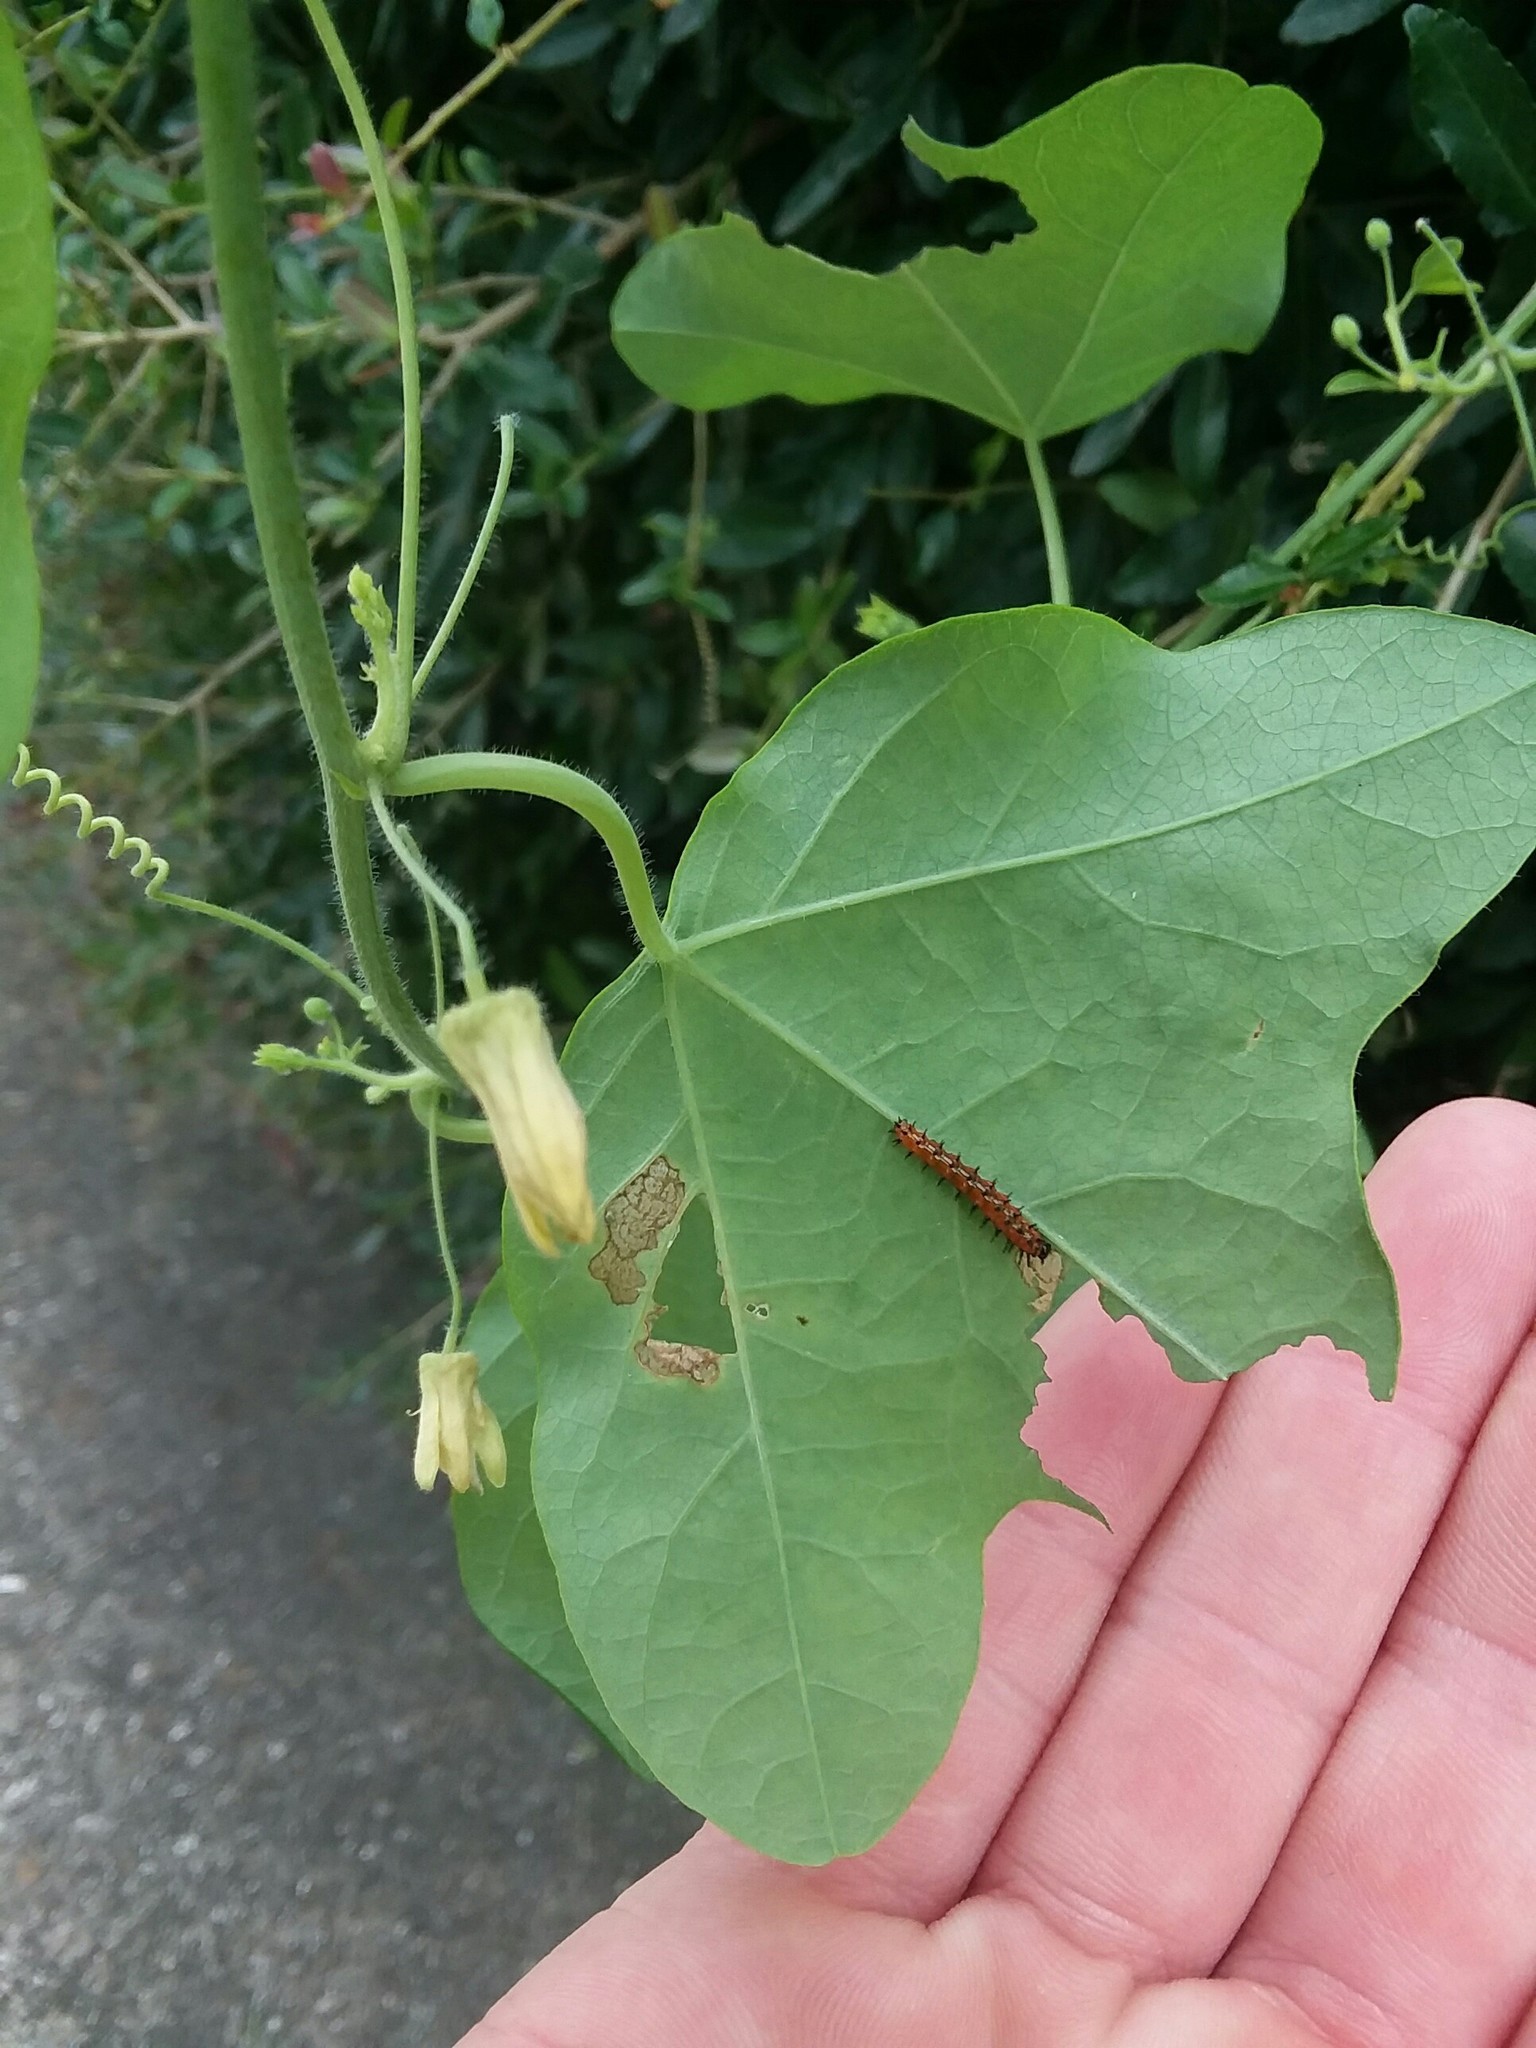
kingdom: Animalia
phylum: Arthropoda
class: Insecta
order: Lepidoptera
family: Nymphalidae
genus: Dione
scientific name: Dione vanillae
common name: Gulf fritillary
